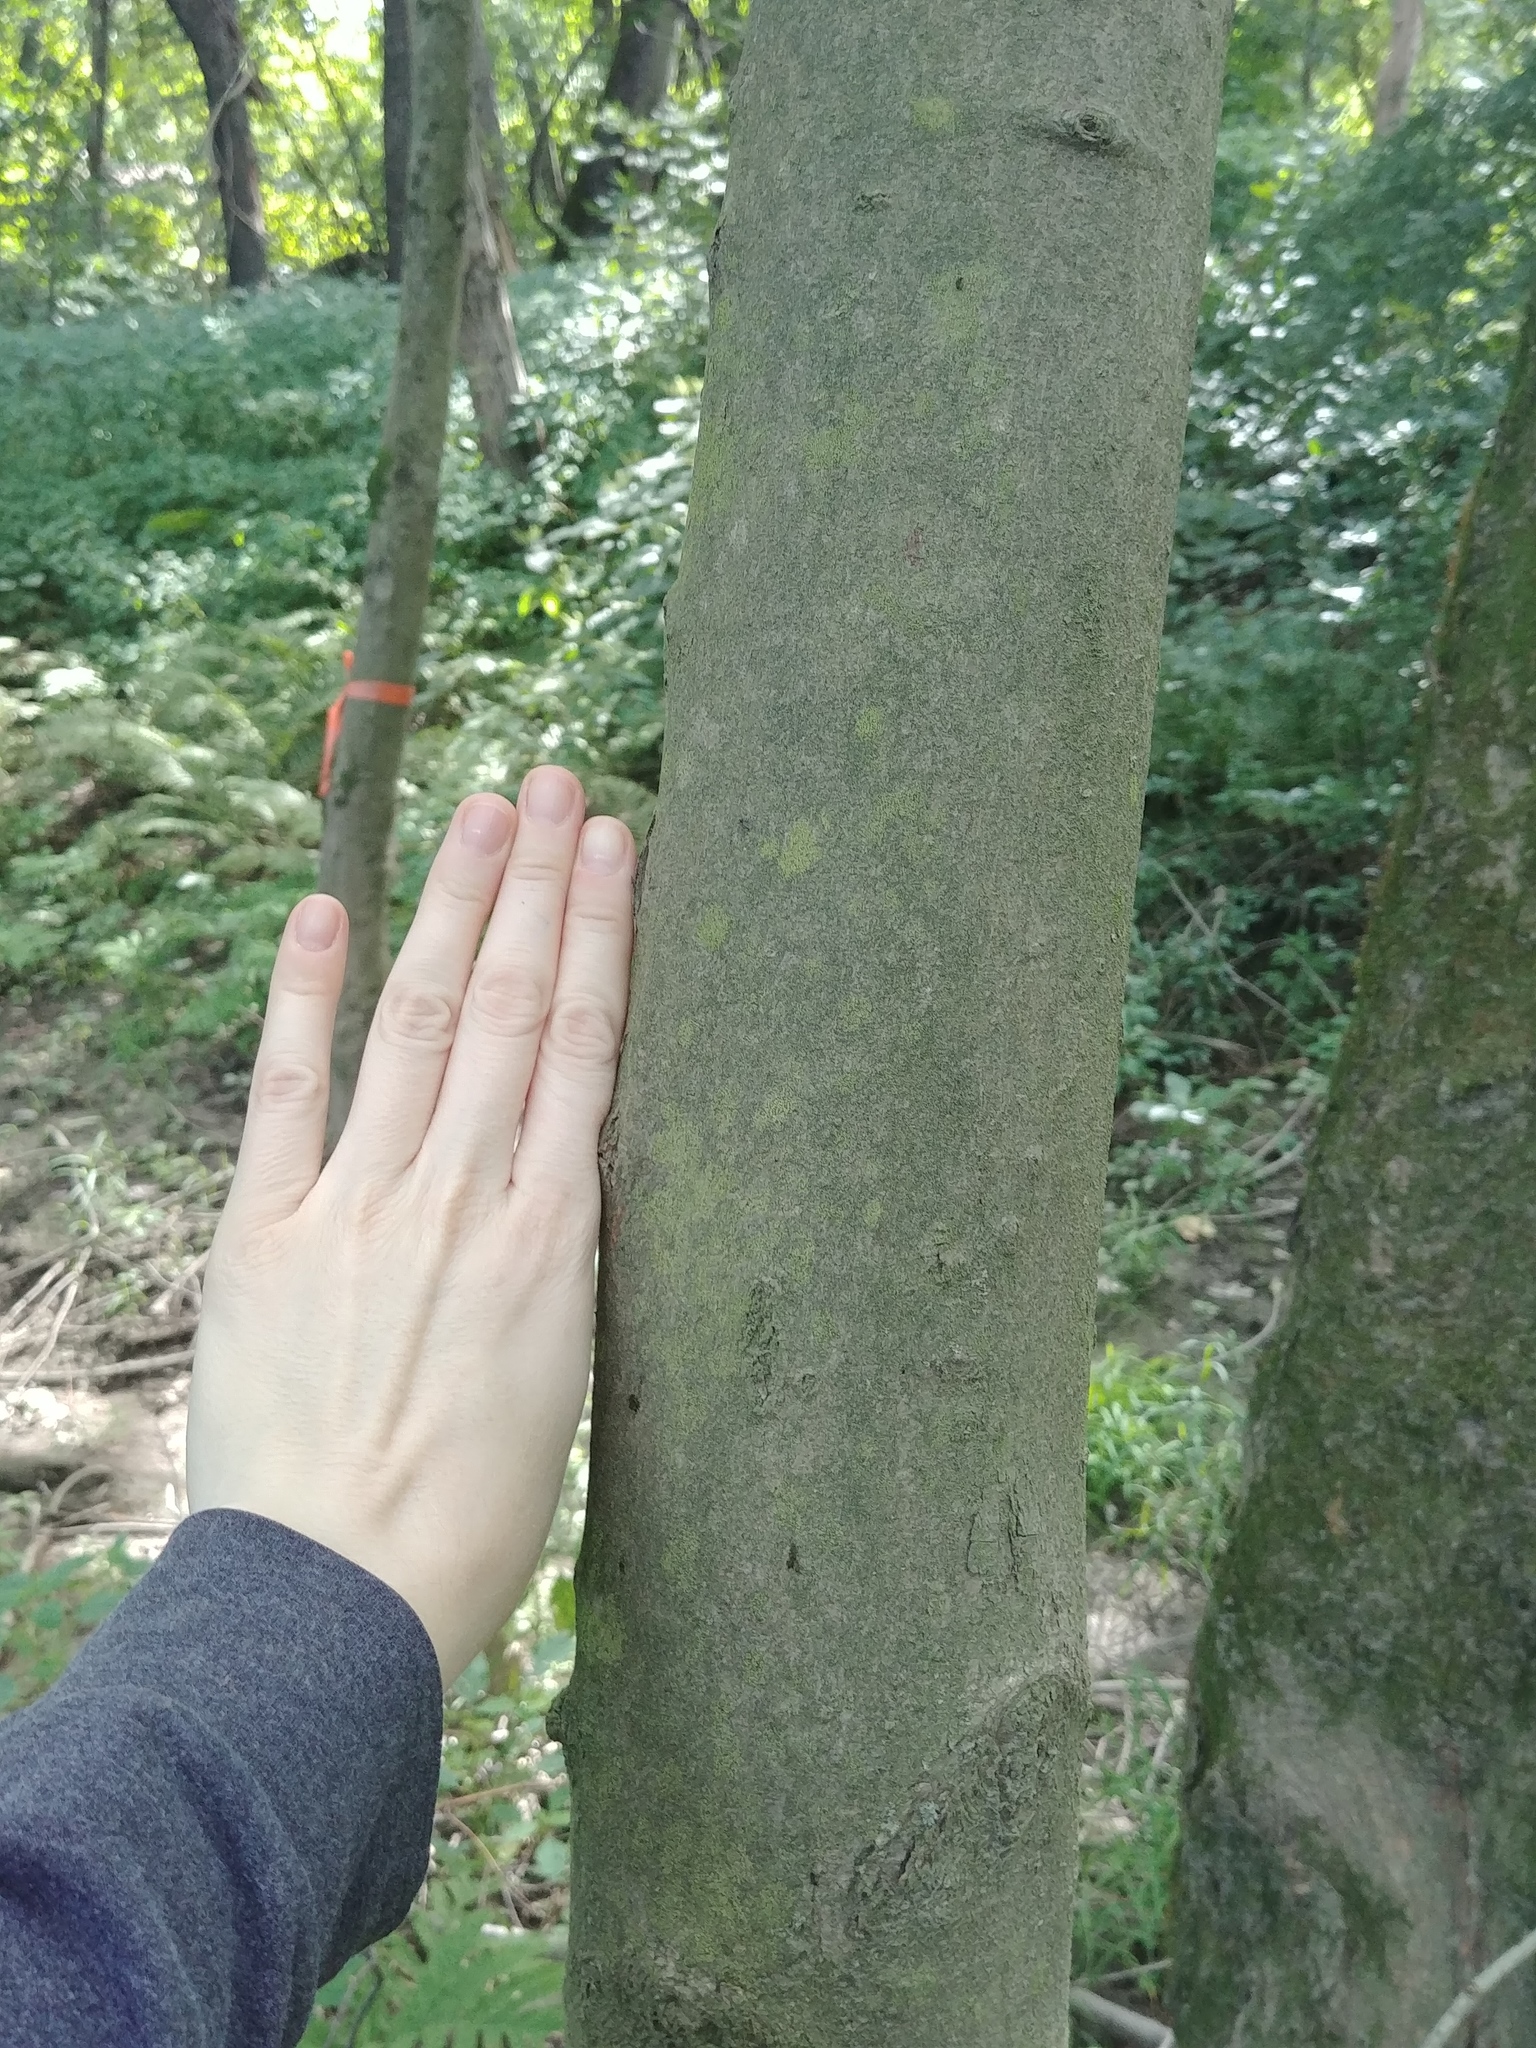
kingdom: Plantae
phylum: Tracheophyta
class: Magnoliopsida
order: Sapindales
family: Sapindaceae
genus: Acer
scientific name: Acer saccharinum
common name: Silver maple
